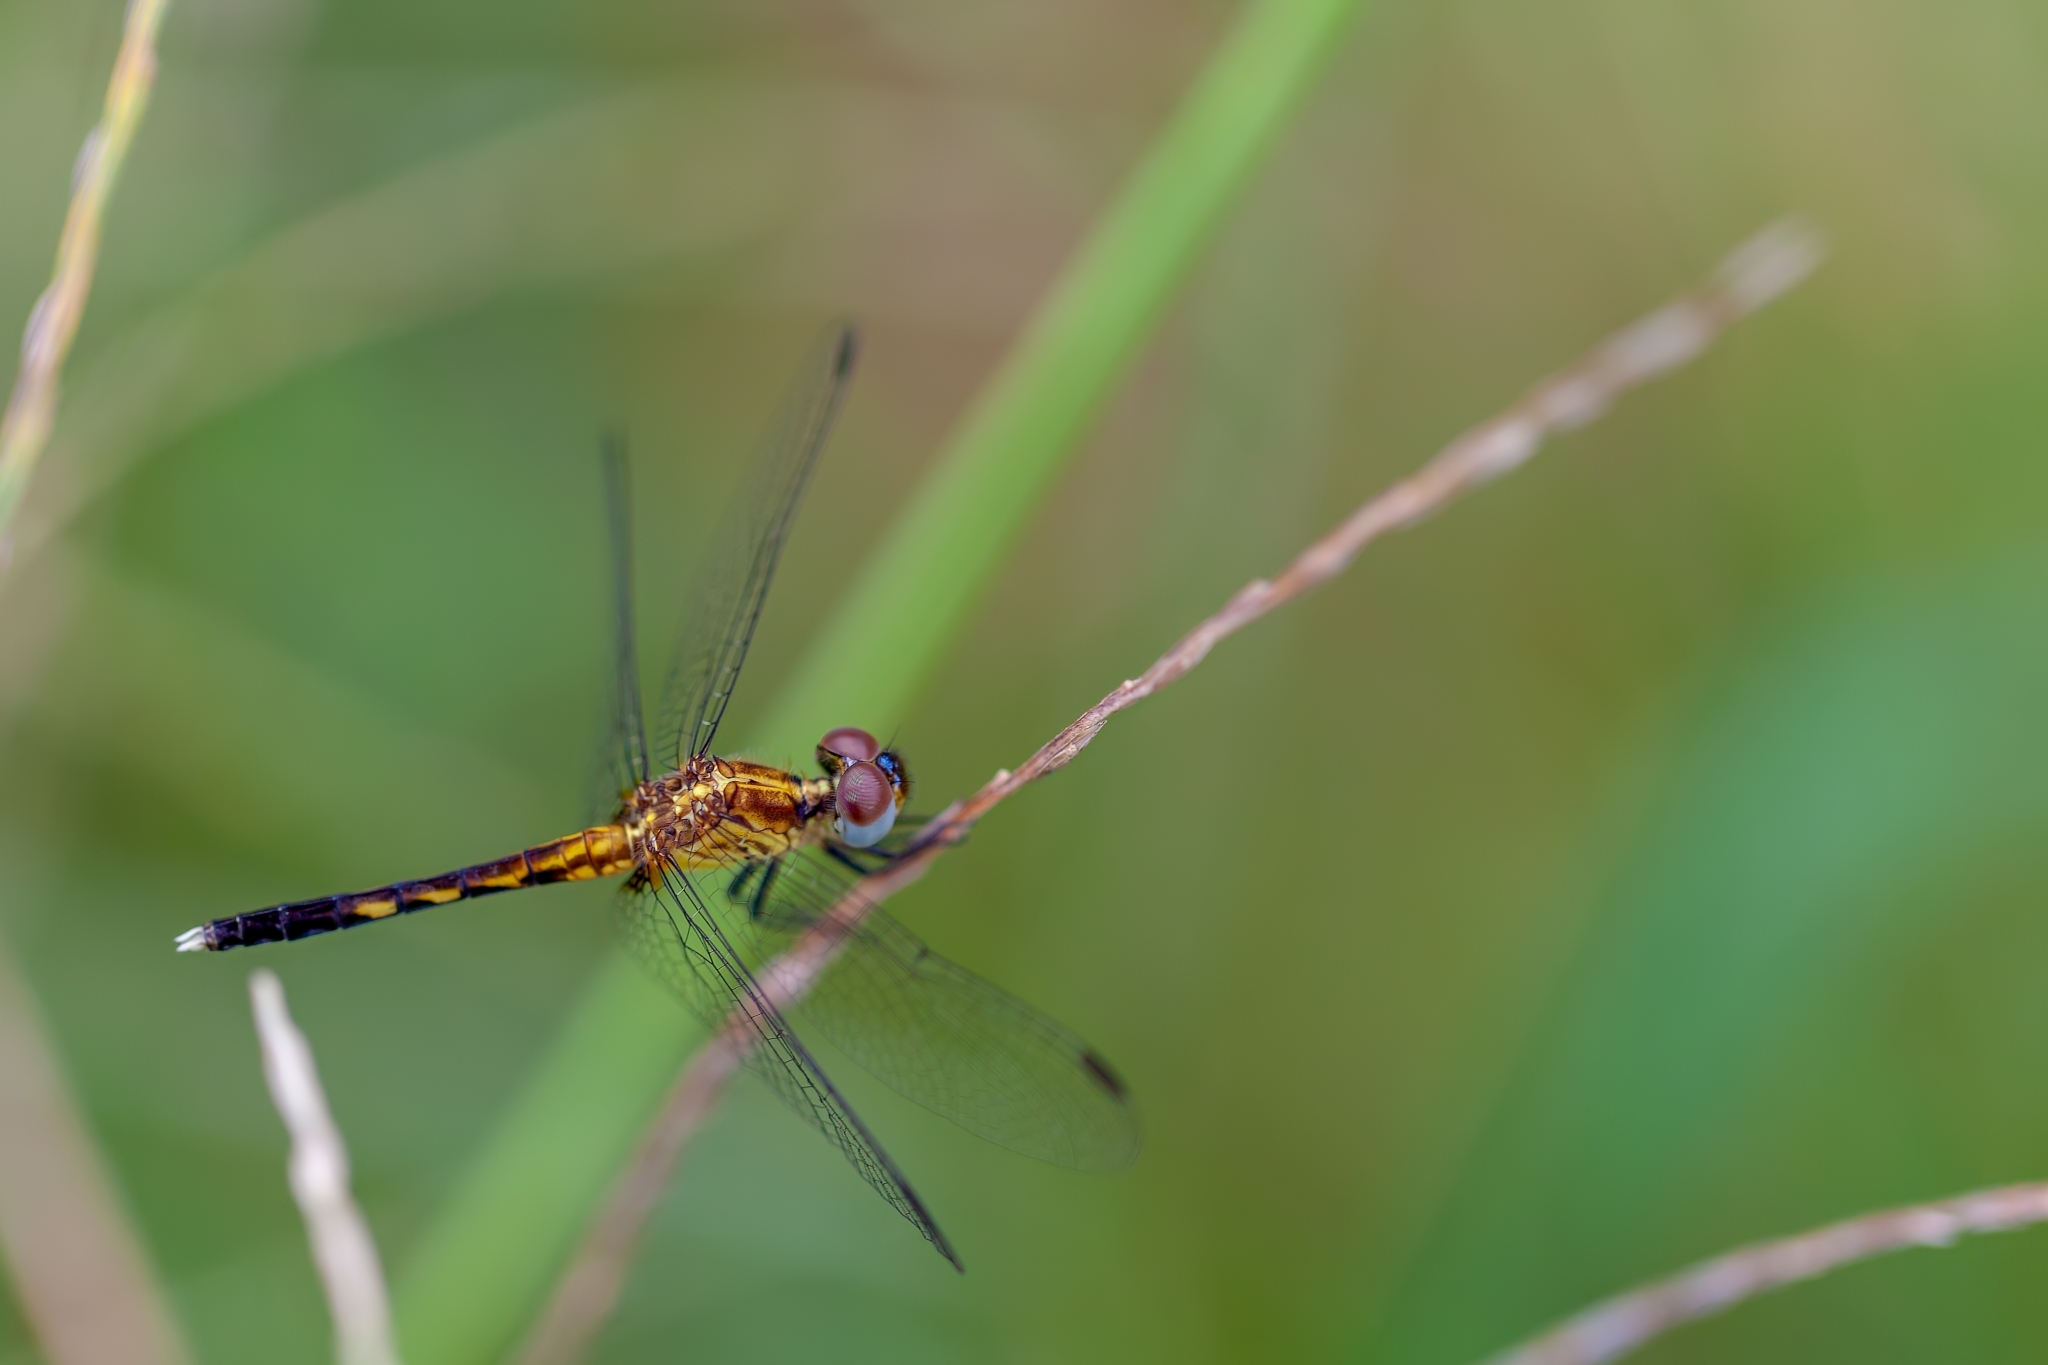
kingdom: Animalia
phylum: Arthropoda
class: Insecta
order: Odonata
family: Libellulidae
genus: Erythrodiplax
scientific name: Erythrodiplax minuscula
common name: Little blue dragonlet
